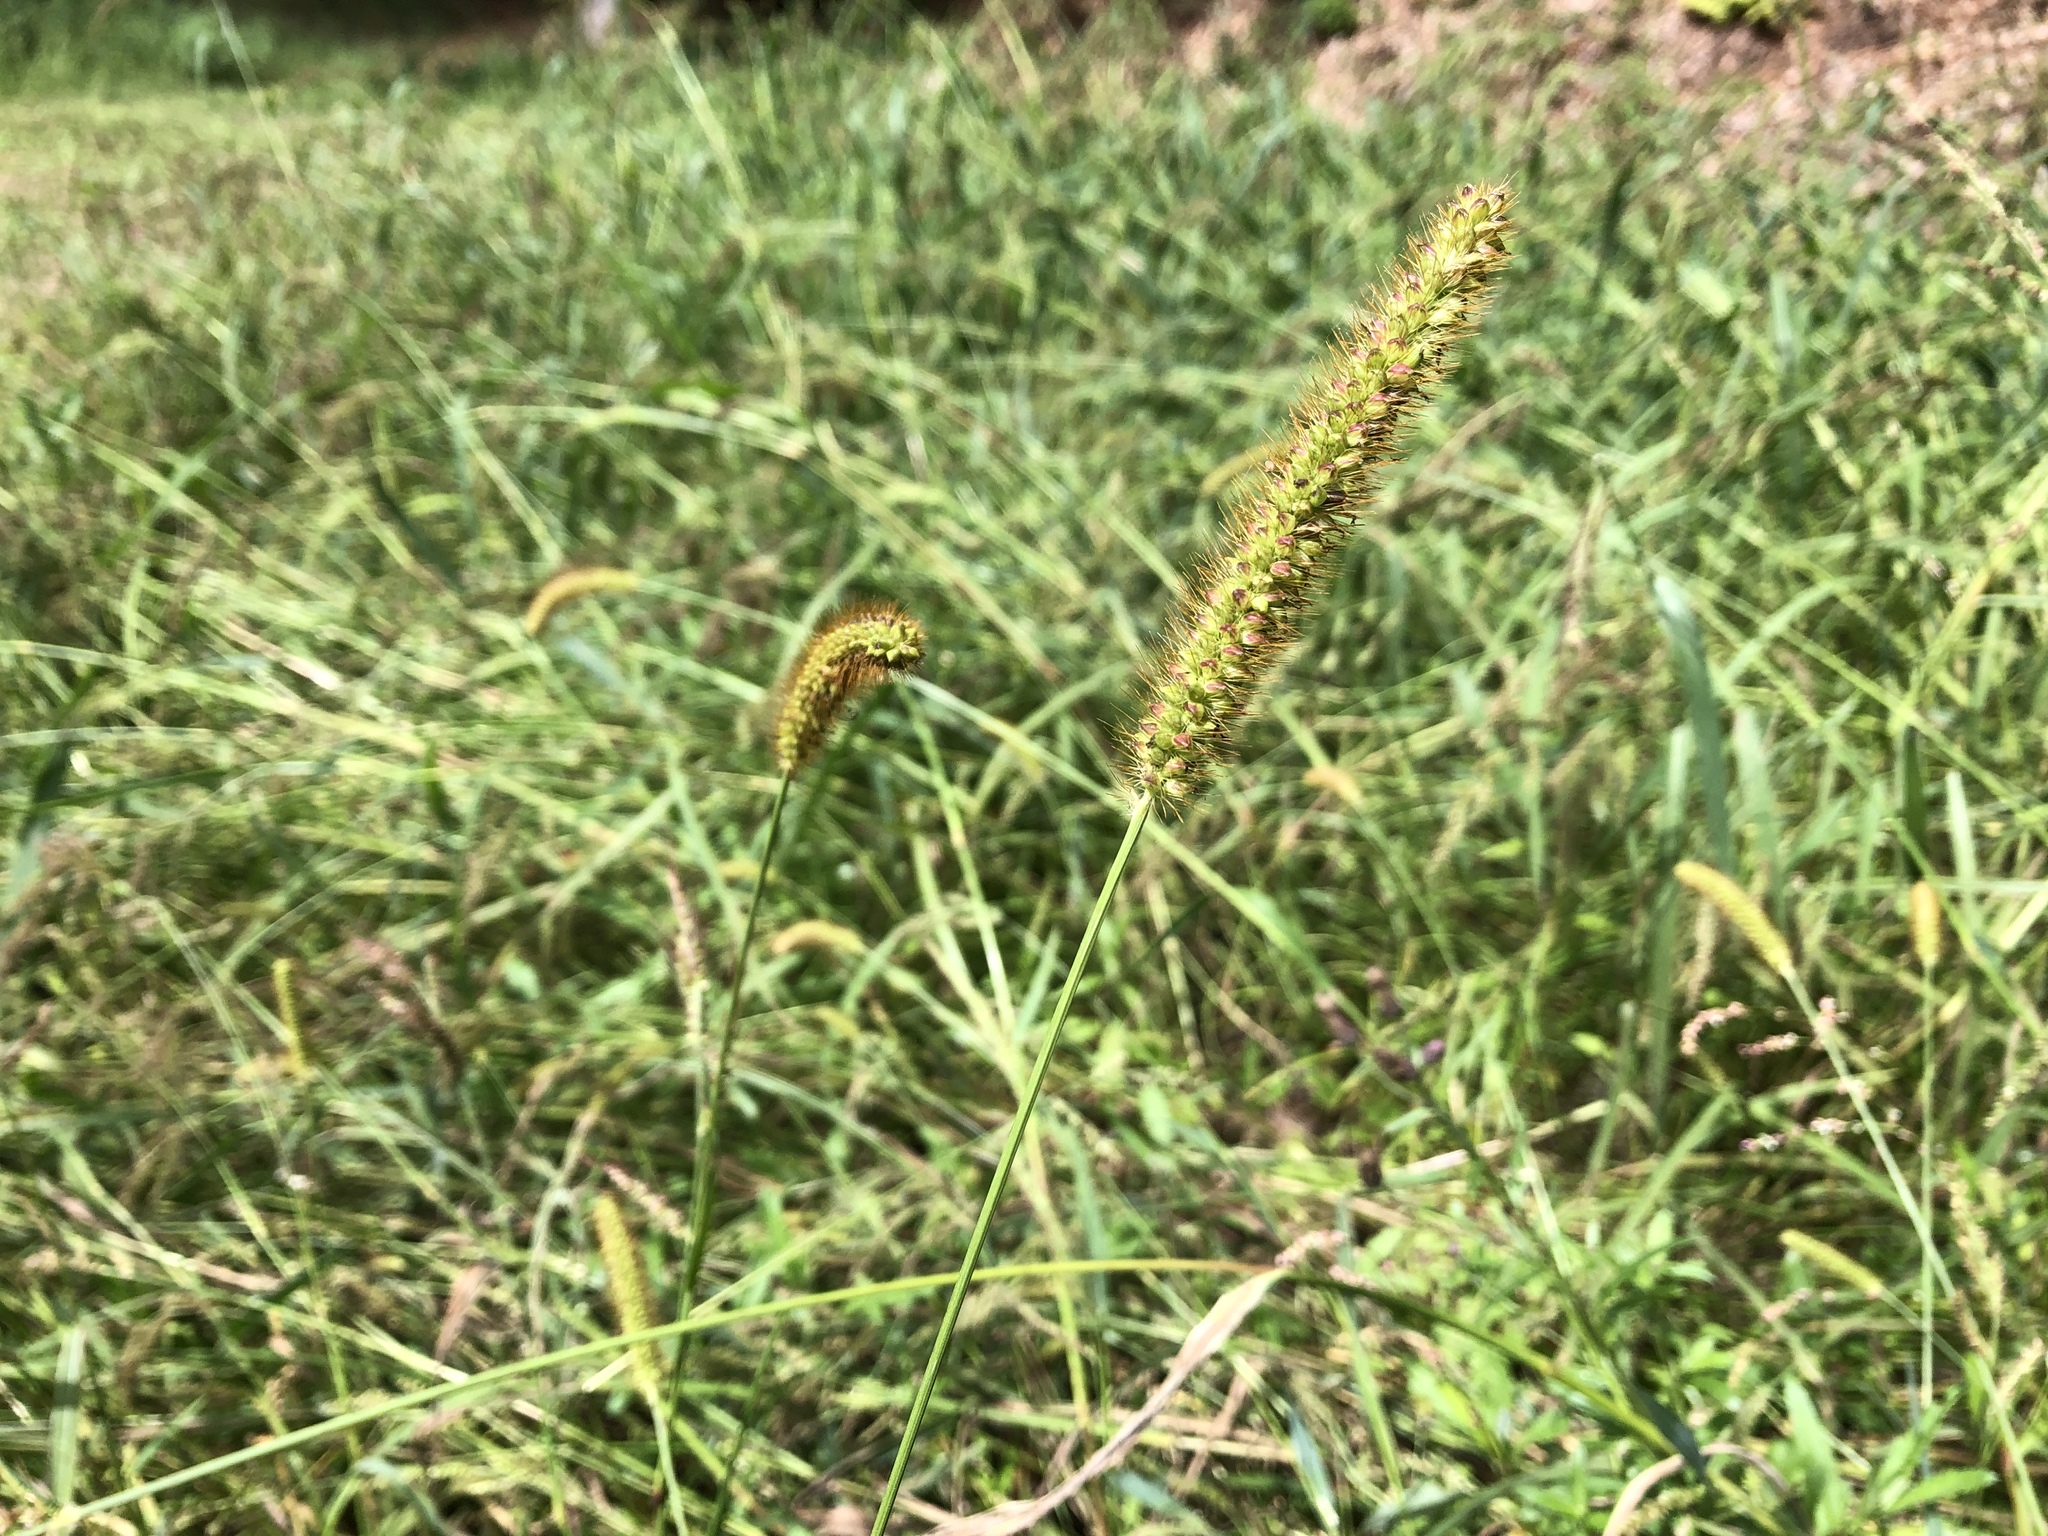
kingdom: Plantae
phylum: Tracheophyta
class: Liliopsida
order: Poales
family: Poaceae
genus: Setaria
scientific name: Setaria pumila
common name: Yellow bristle-grass
